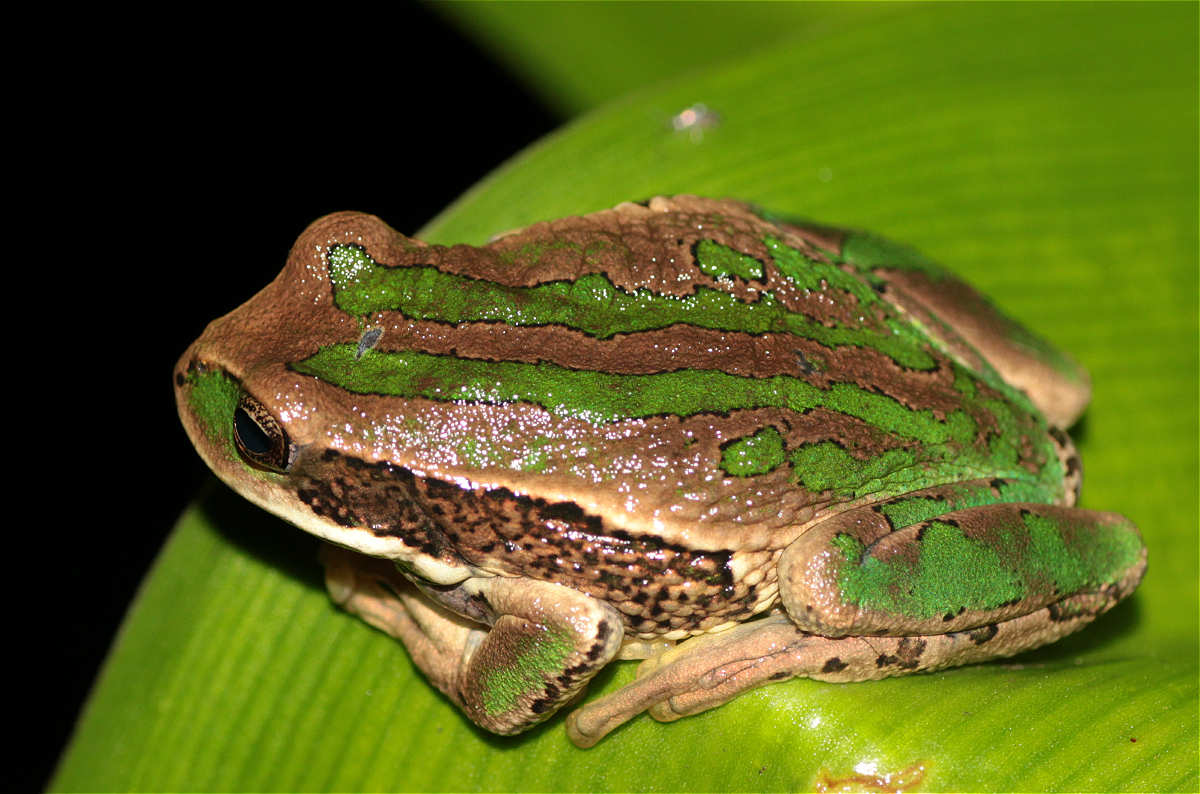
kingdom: Animalia
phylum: Chordata
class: Amphibia
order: Anura
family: Hemiphractidae
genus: Gastrotheca
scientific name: Gastrotheca cuencana
